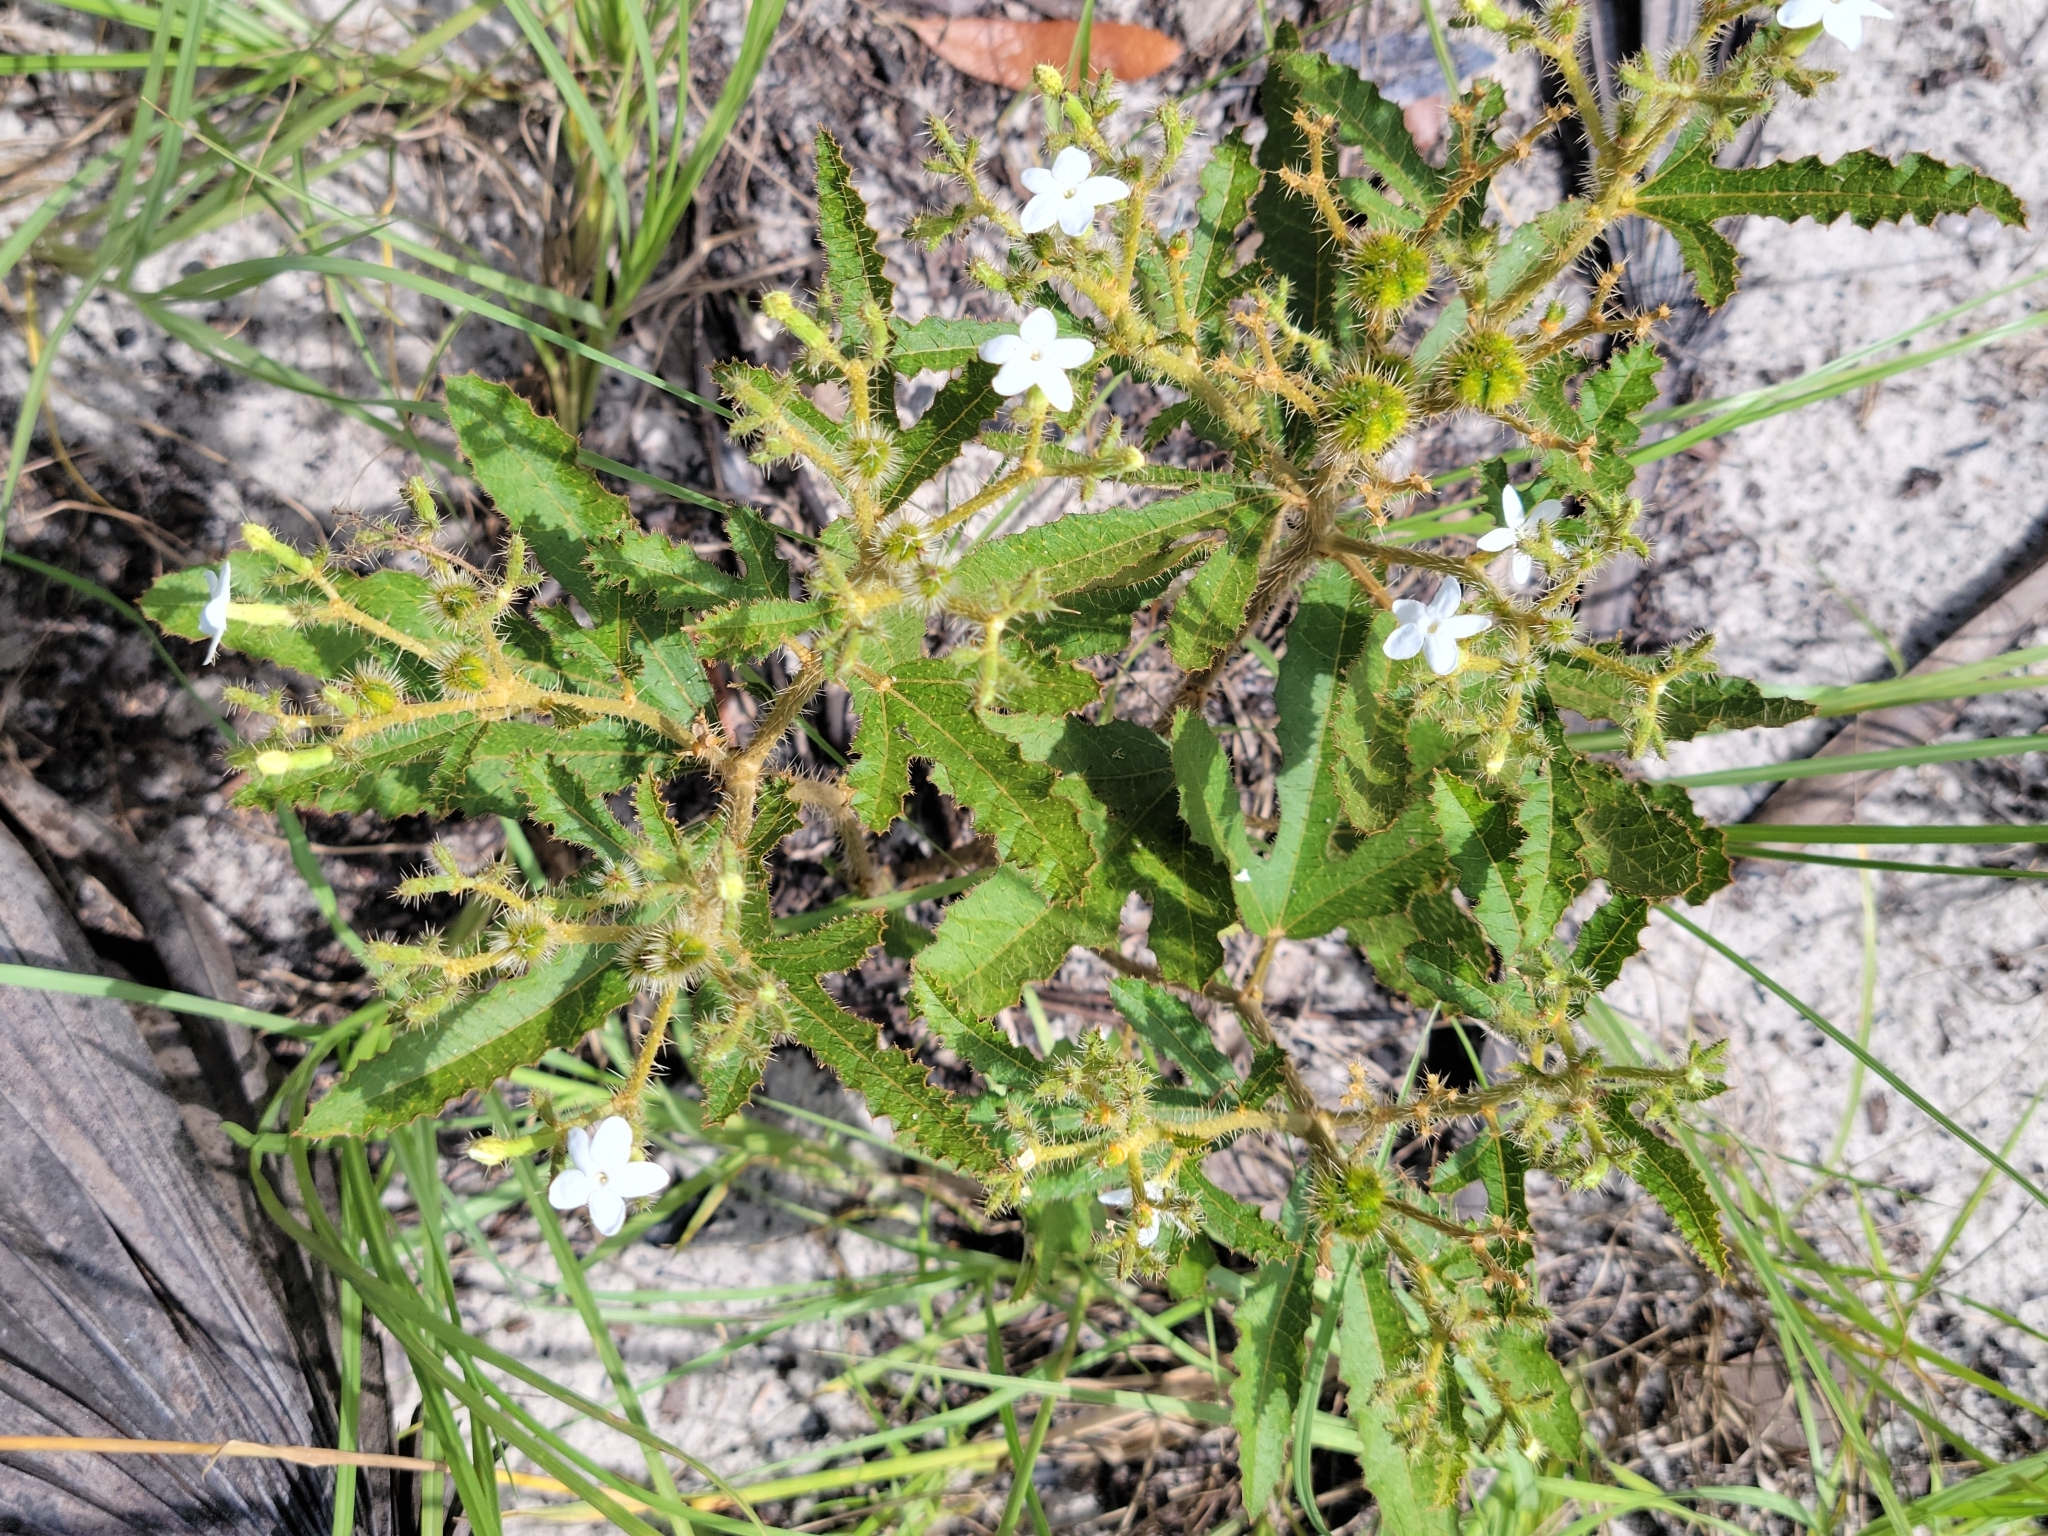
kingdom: Plantae
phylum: Tracheophyta
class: Magnoliopsida
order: Malpighiales
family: Euphorbiaceae
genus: Cnidoscolus
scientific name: Cnidoscolus stimulosus
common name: Bull-nettle
